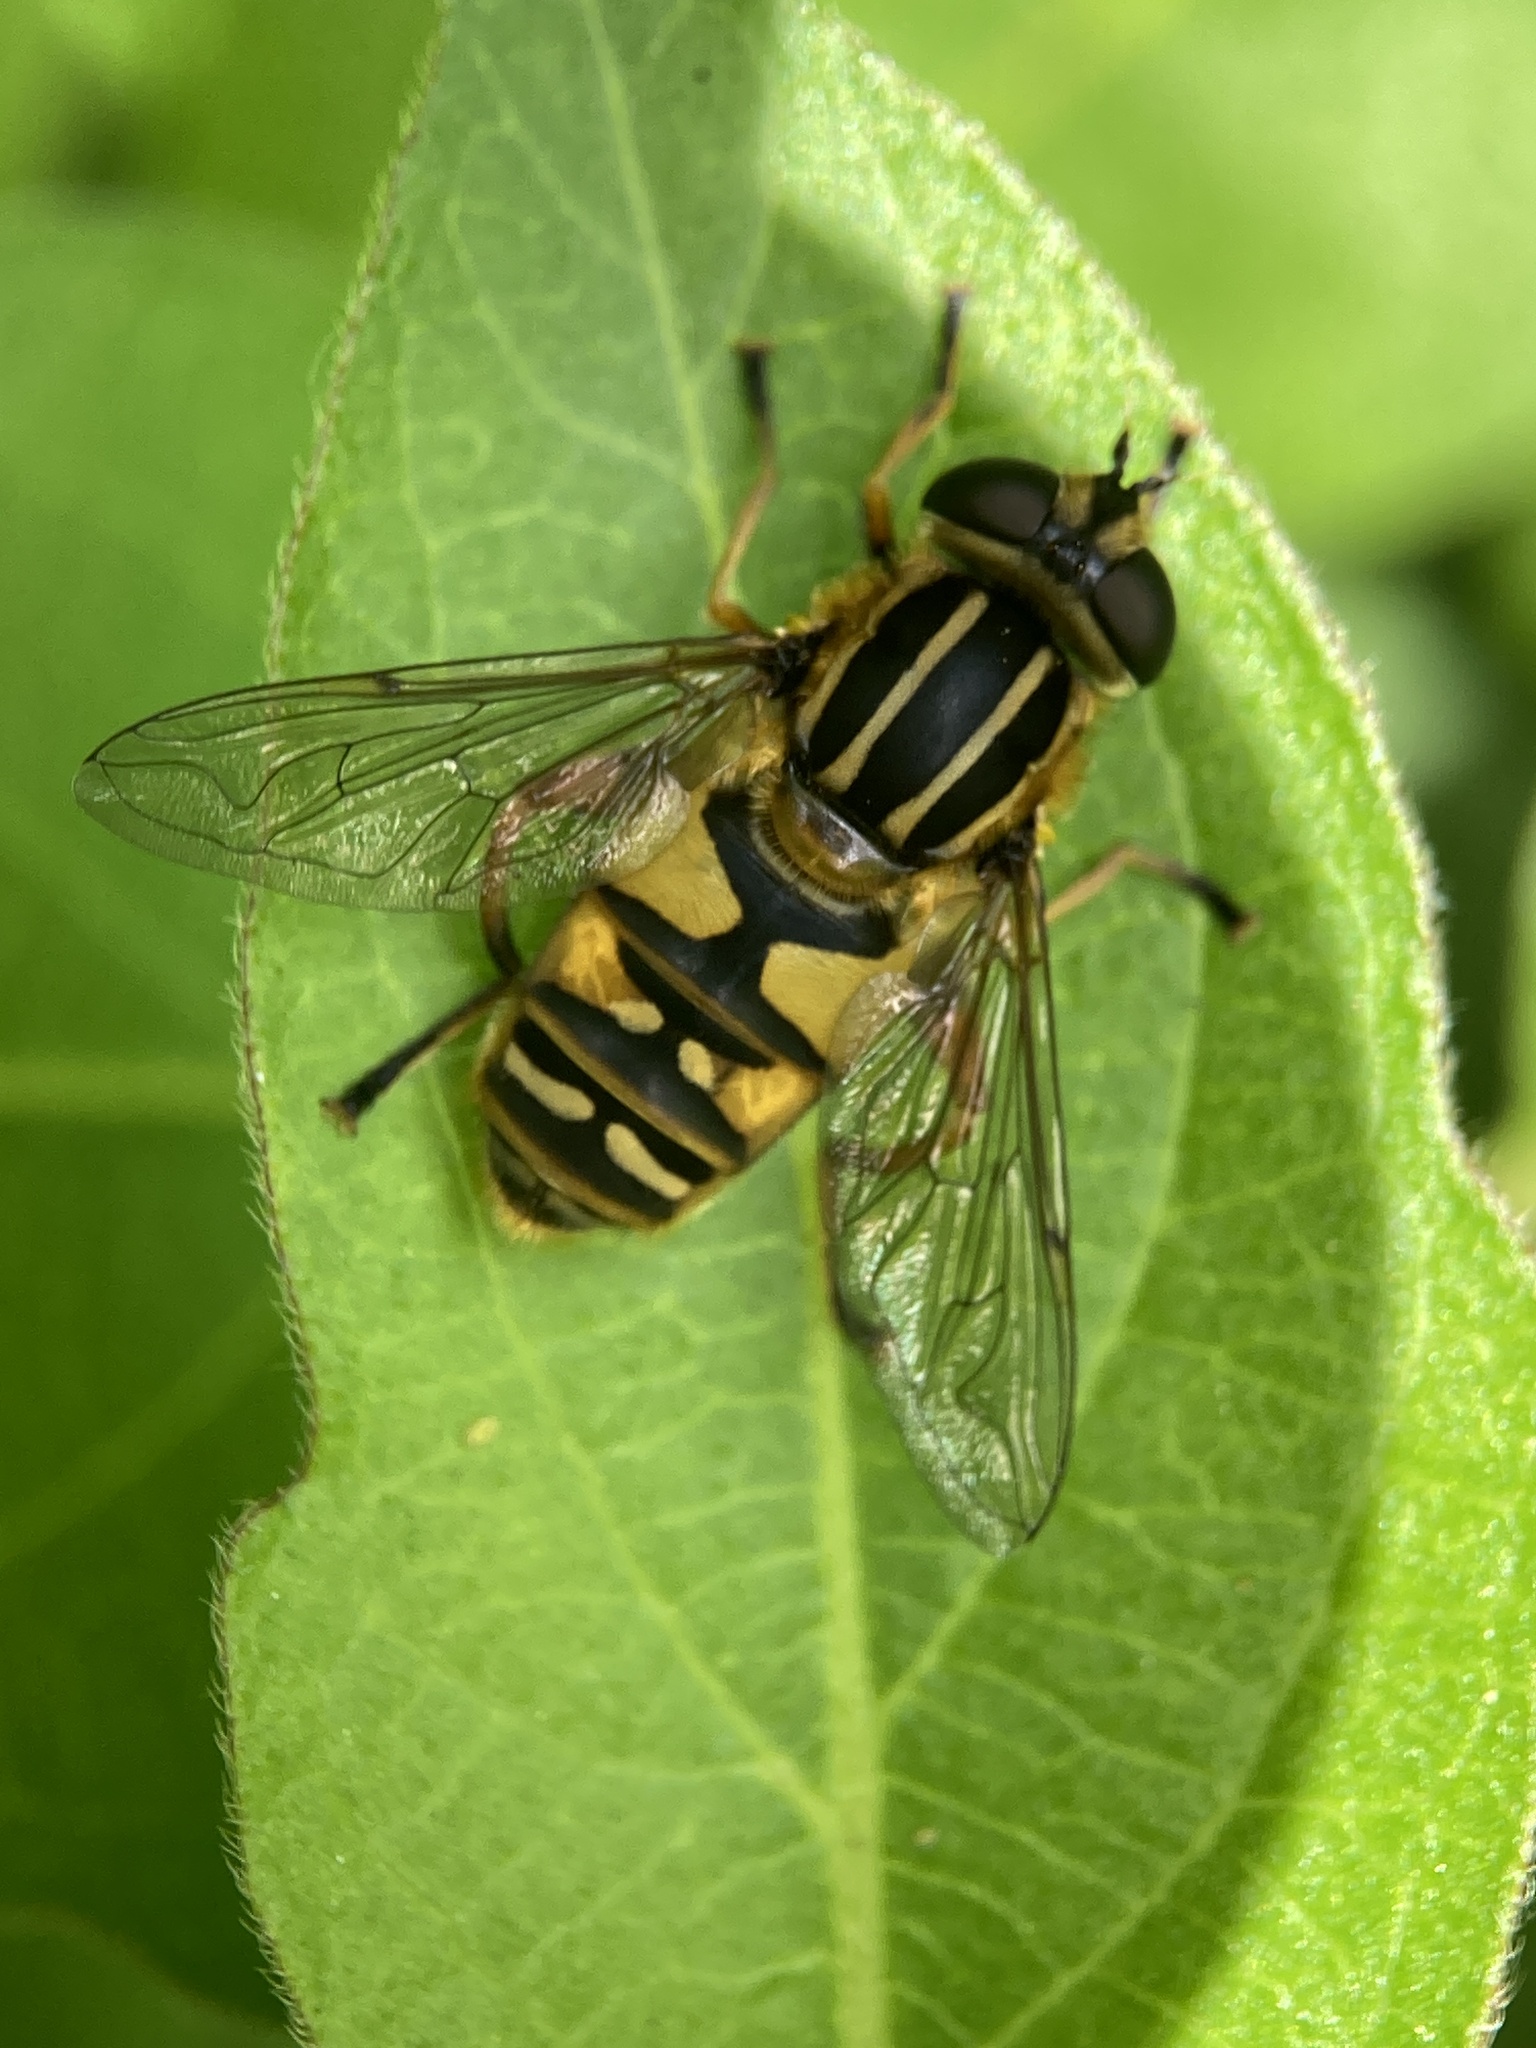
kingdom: Animalia
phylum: Arthropoda
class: Insecta
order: Diptera
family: Syrphidae
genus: Helophilus
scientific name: Helophilus pendulus
